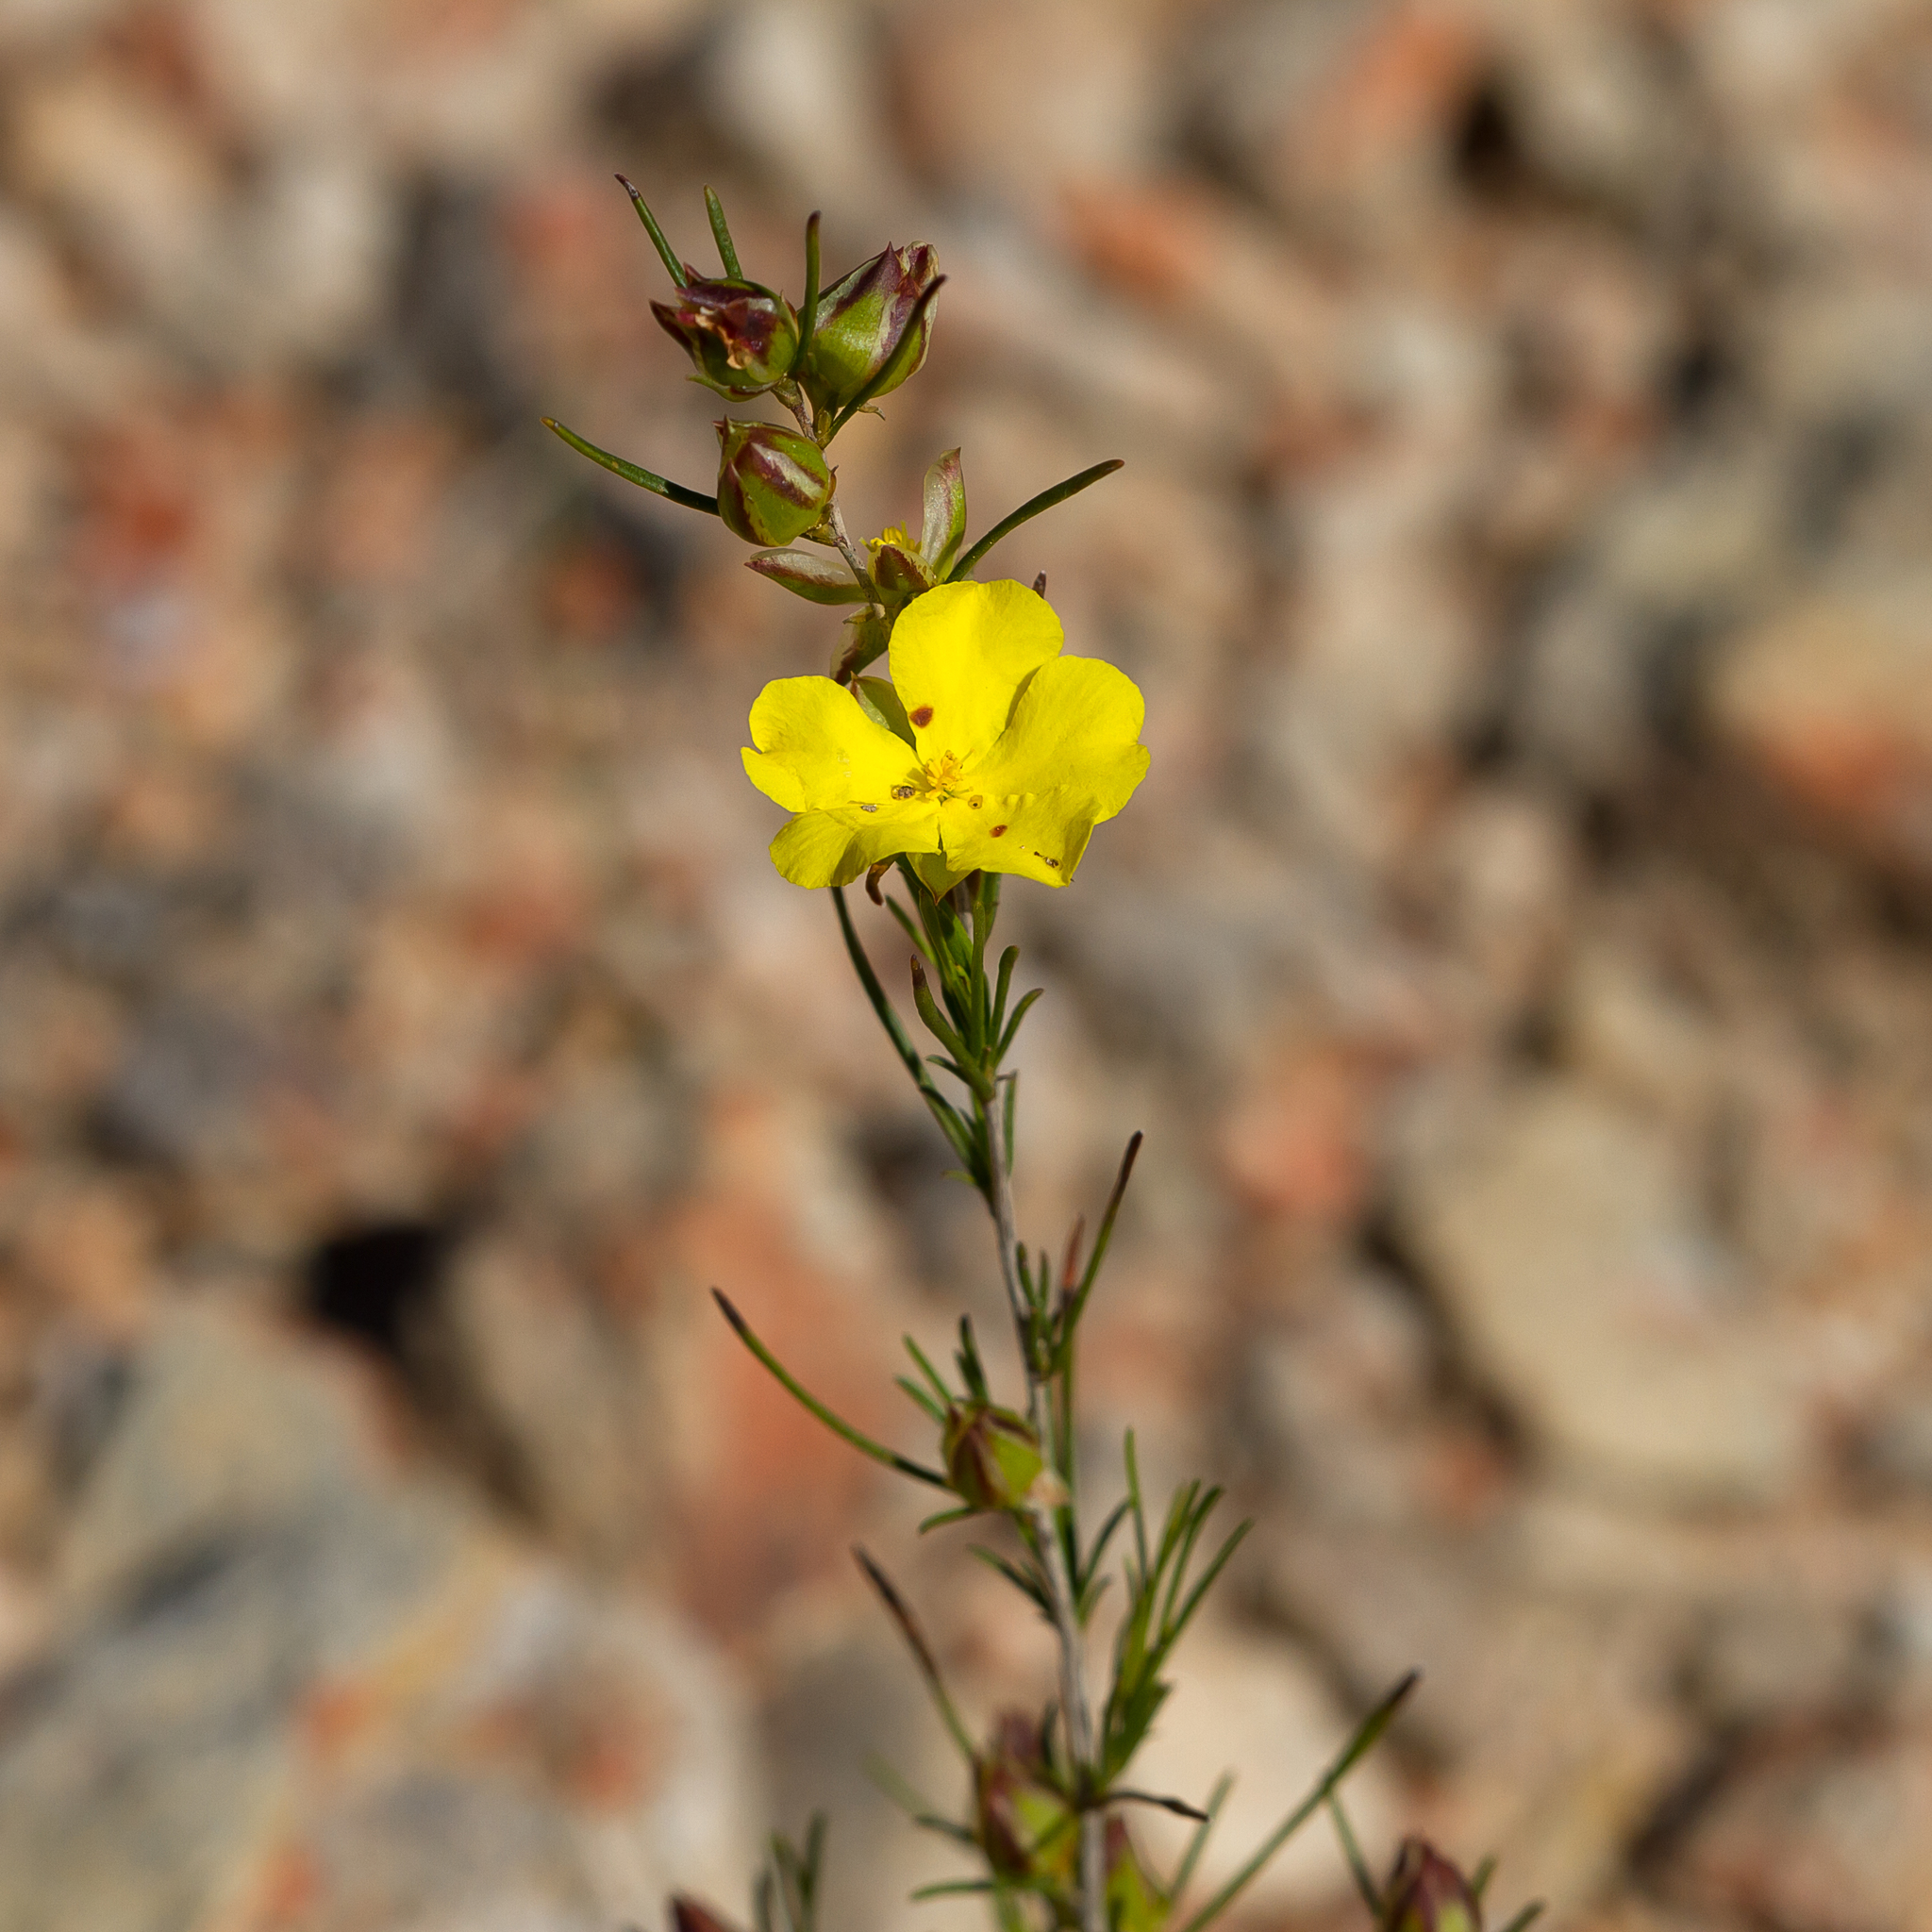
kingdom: Plantae
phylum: Tracheophyta
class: Magnoliopsida
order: Dilleniales
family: Dilleniaceae
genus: Hibbertia
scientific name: Hibbertia virgata
